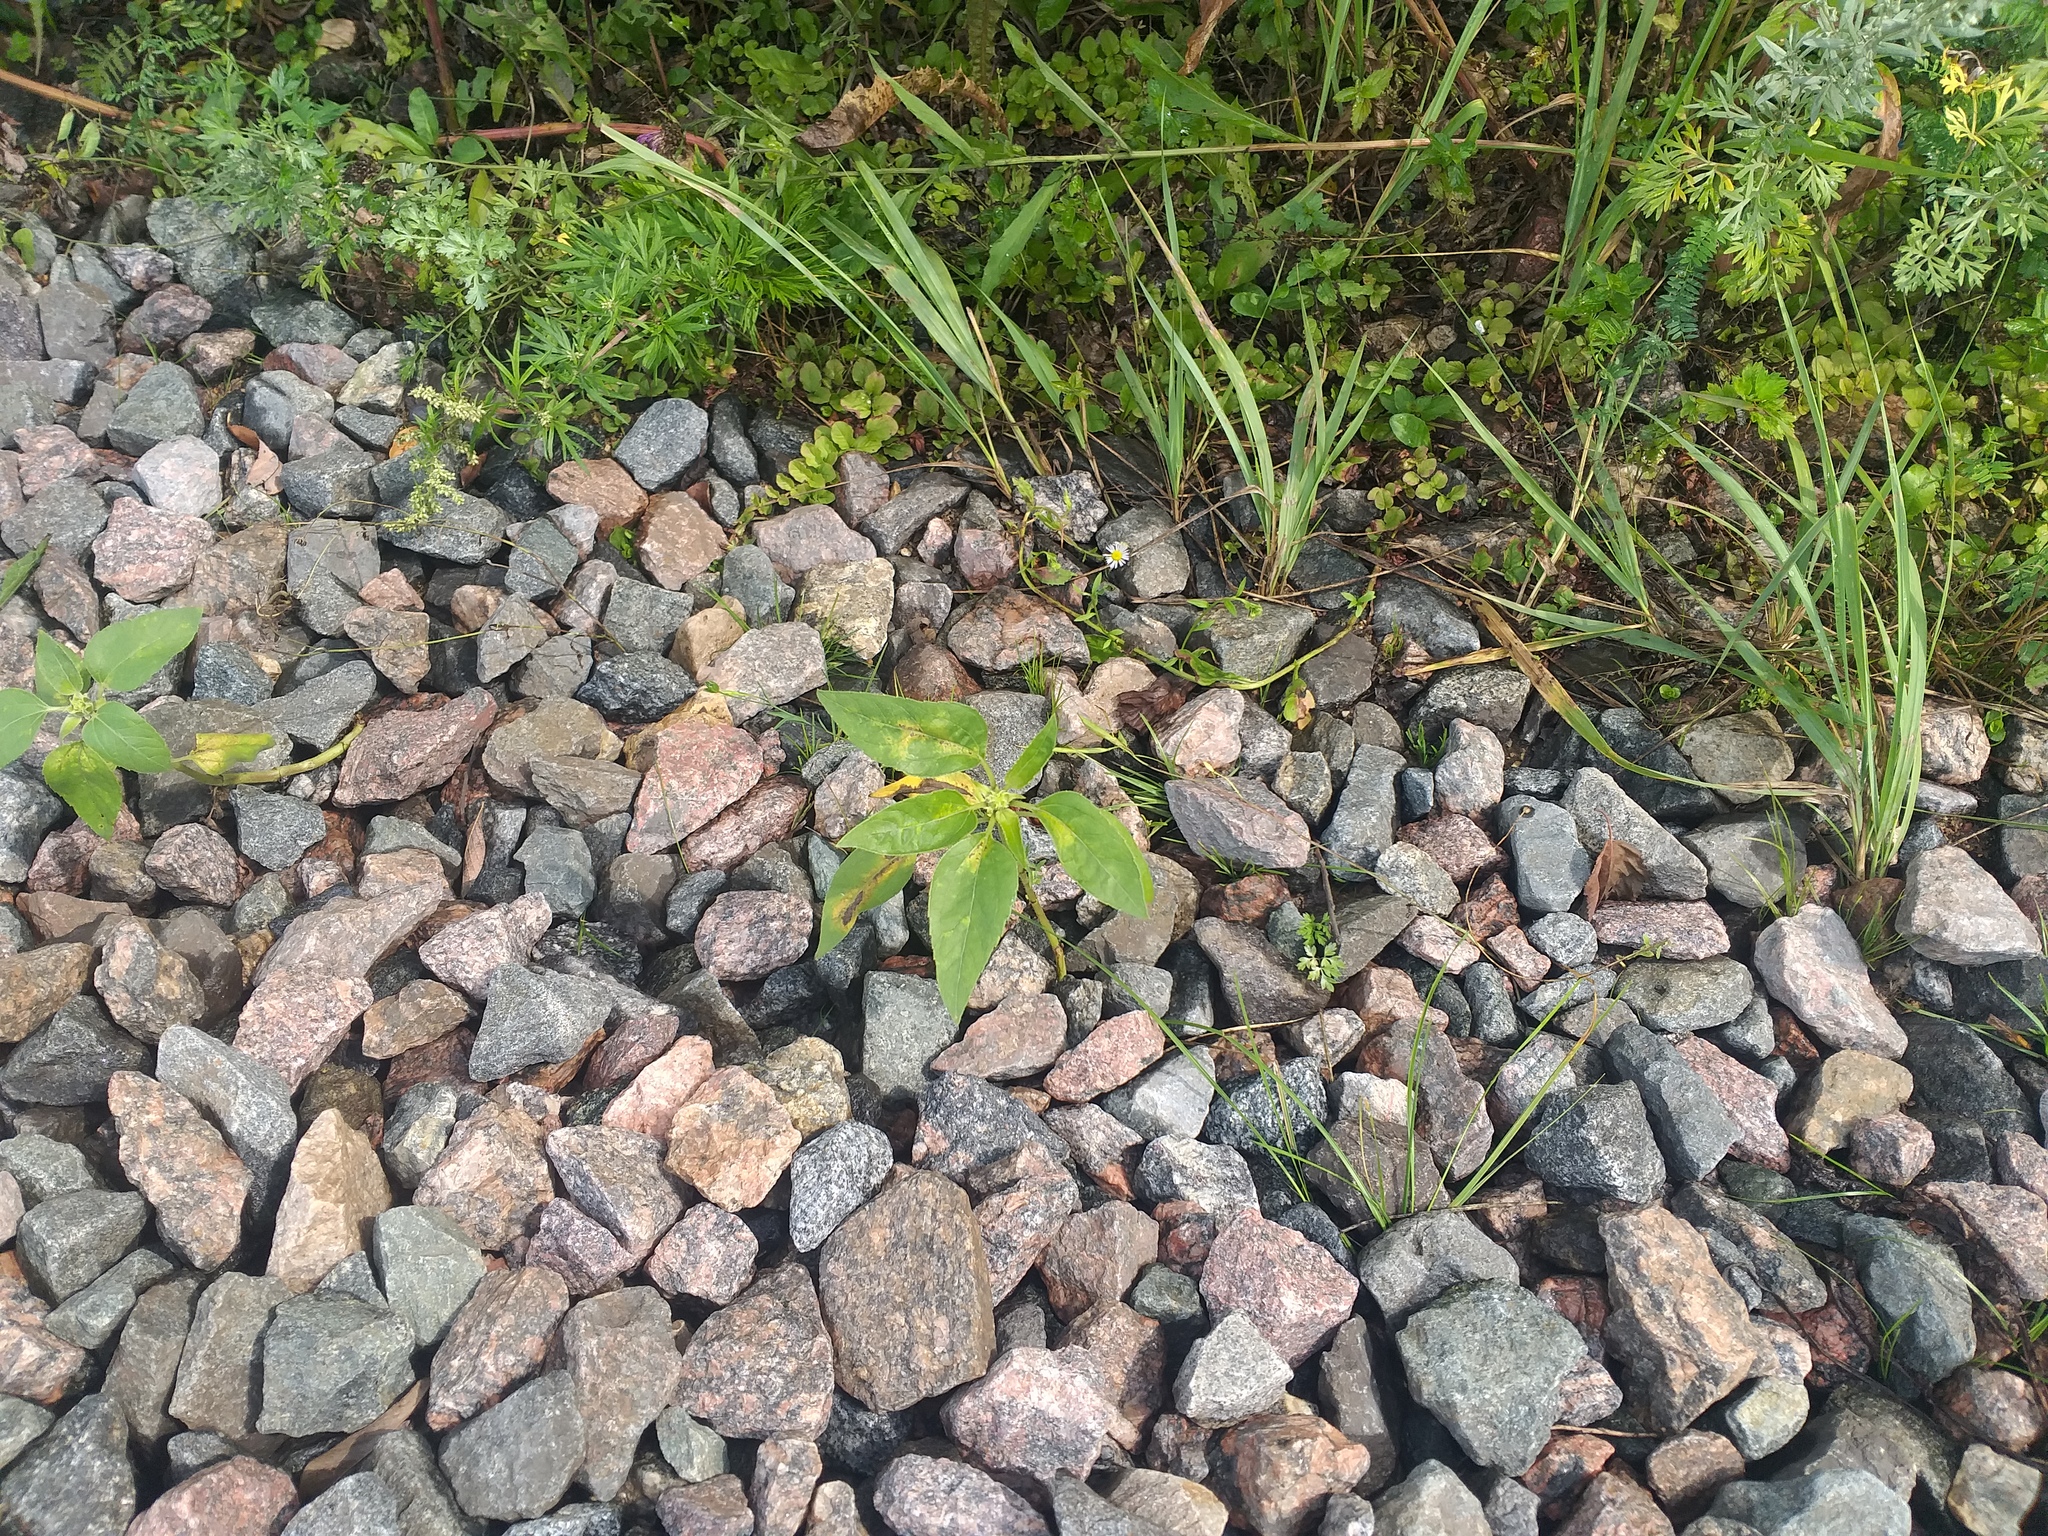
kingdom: Plantae
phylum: Tracheophyta
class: Magnoliopsida
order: Asterales
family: Asteraceae
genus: Helianthus
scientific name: Helianthus annuus
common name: Sunflower
